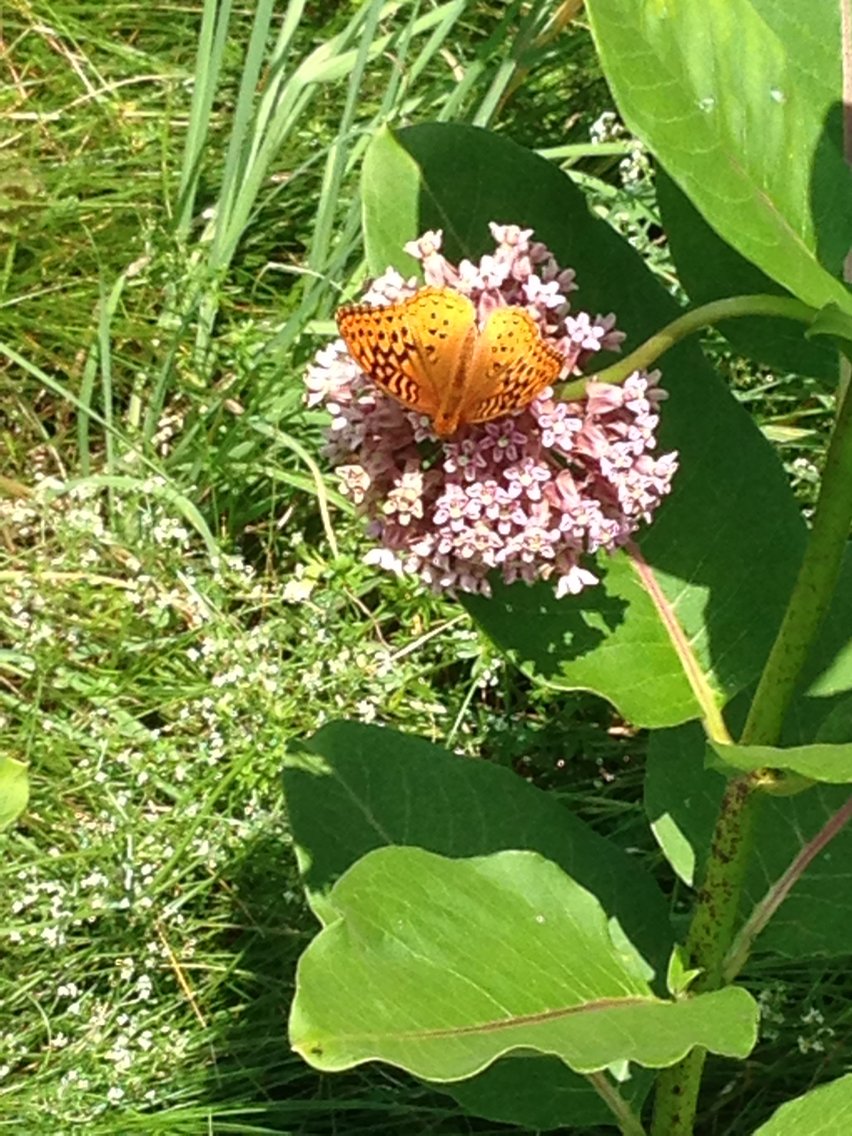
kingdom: Animalia
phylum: Arthropoda
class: Insecta
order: Lepidoptera
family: Nymphalidae
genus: Speyeria
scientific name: Speyeria cybele
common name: Great spangled fritillary
